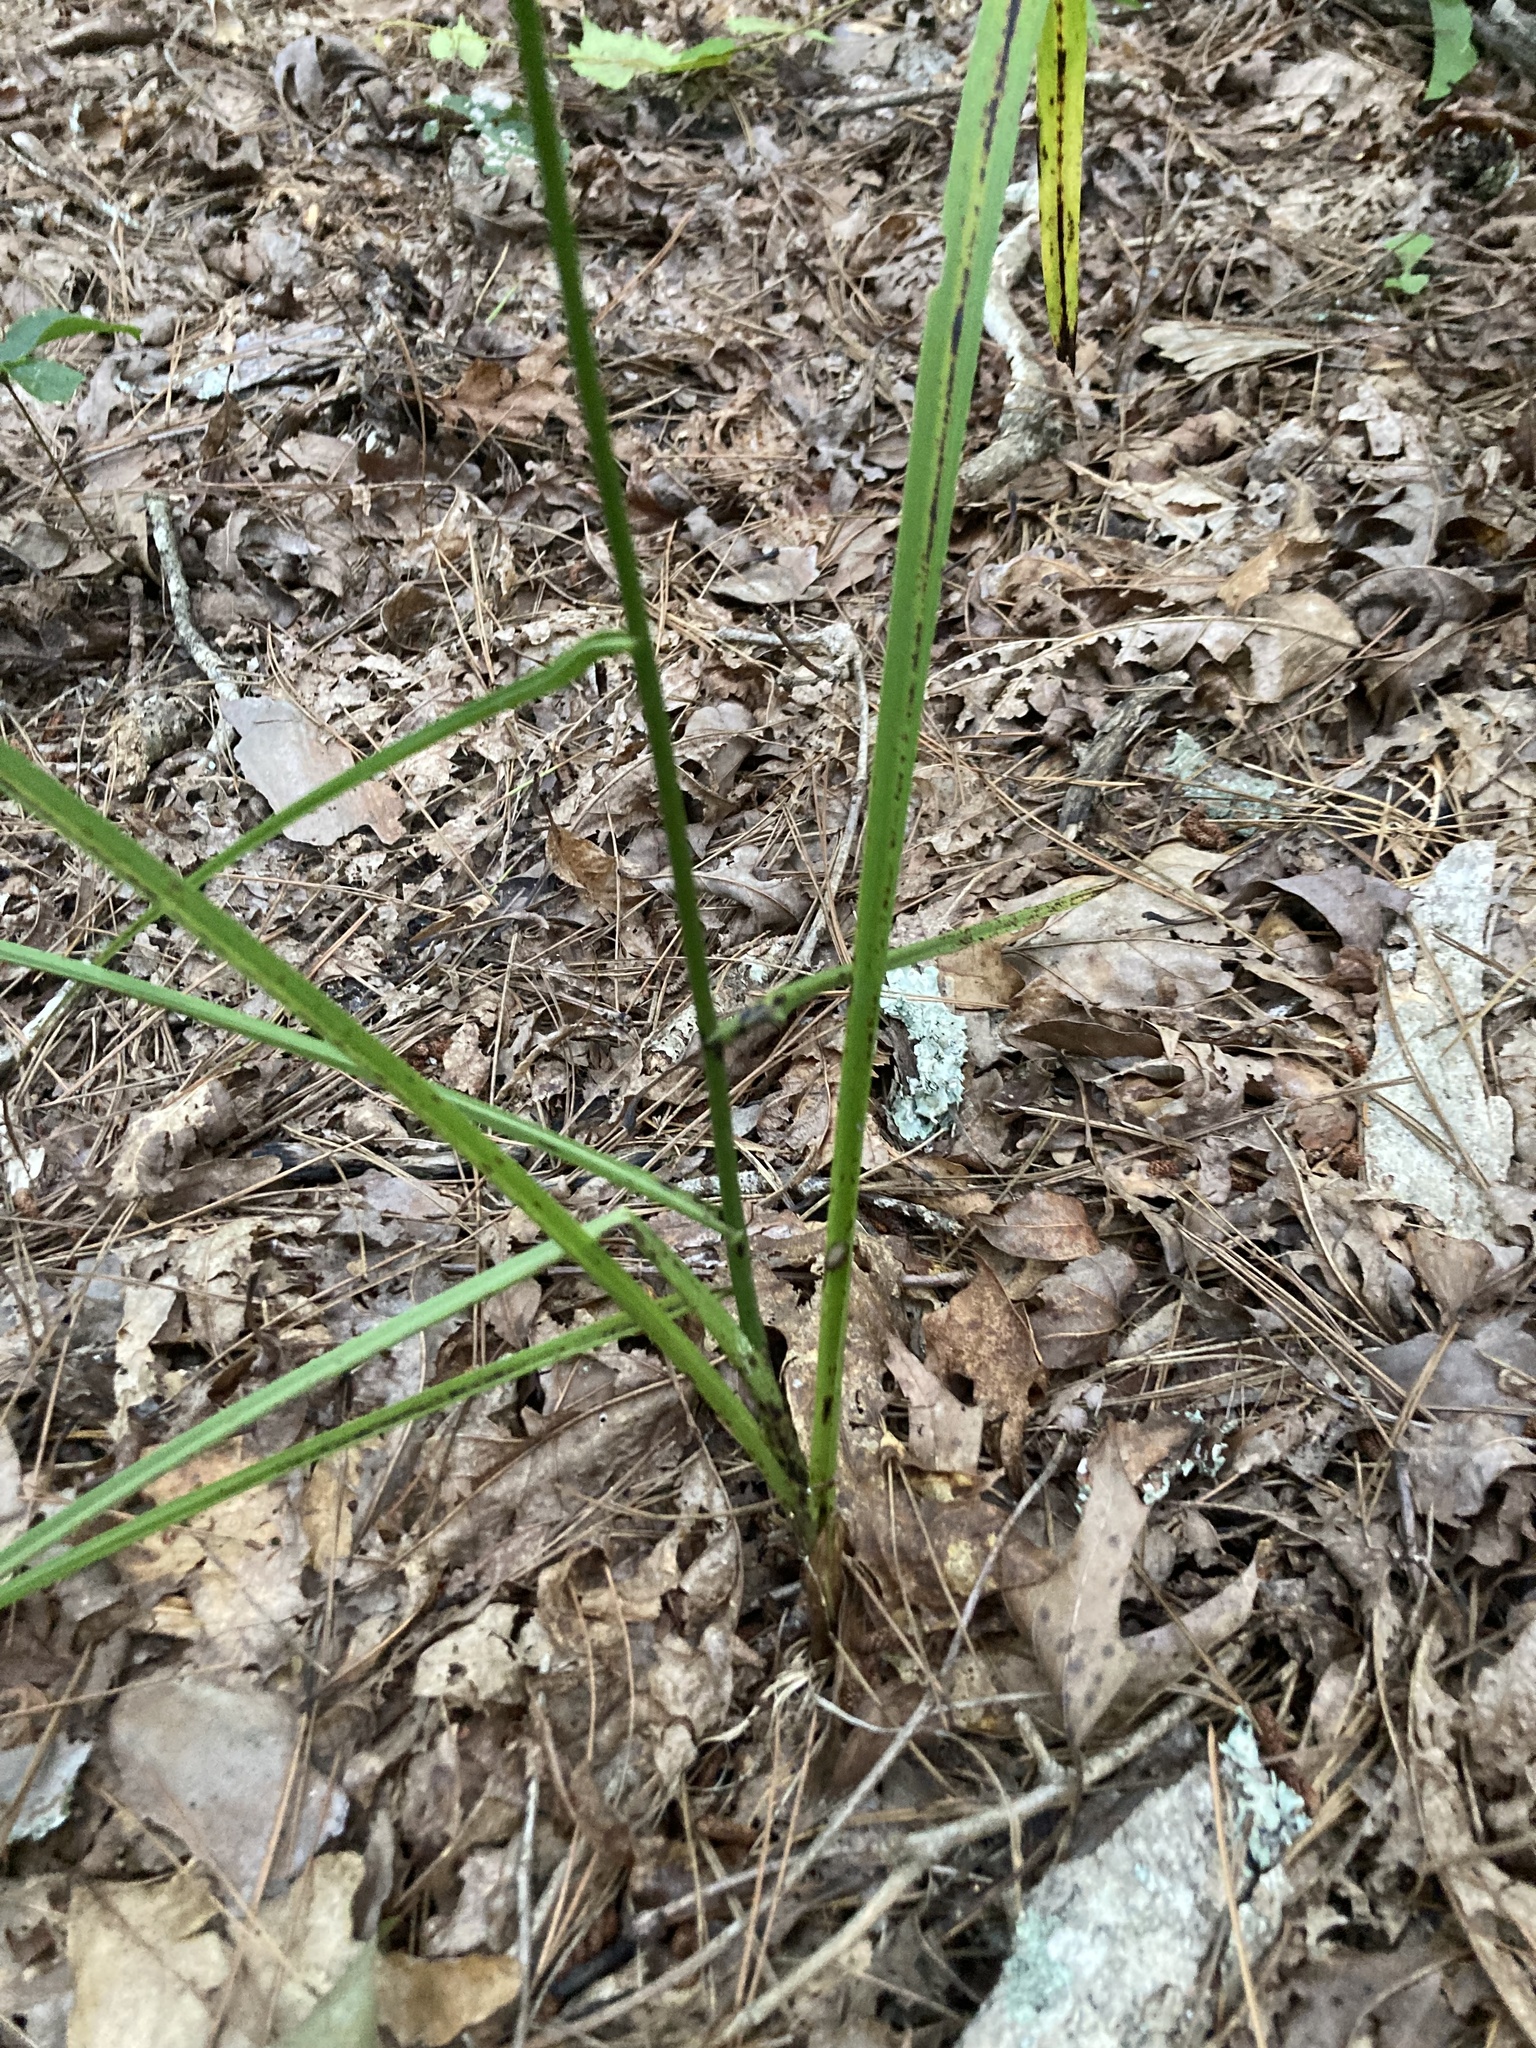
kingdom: Plantae
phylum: Tracheophyta
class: Liliopsida
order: Liliales
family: Melanthiaceae
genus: Stenanthium
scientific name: Stenanthium gramineum
